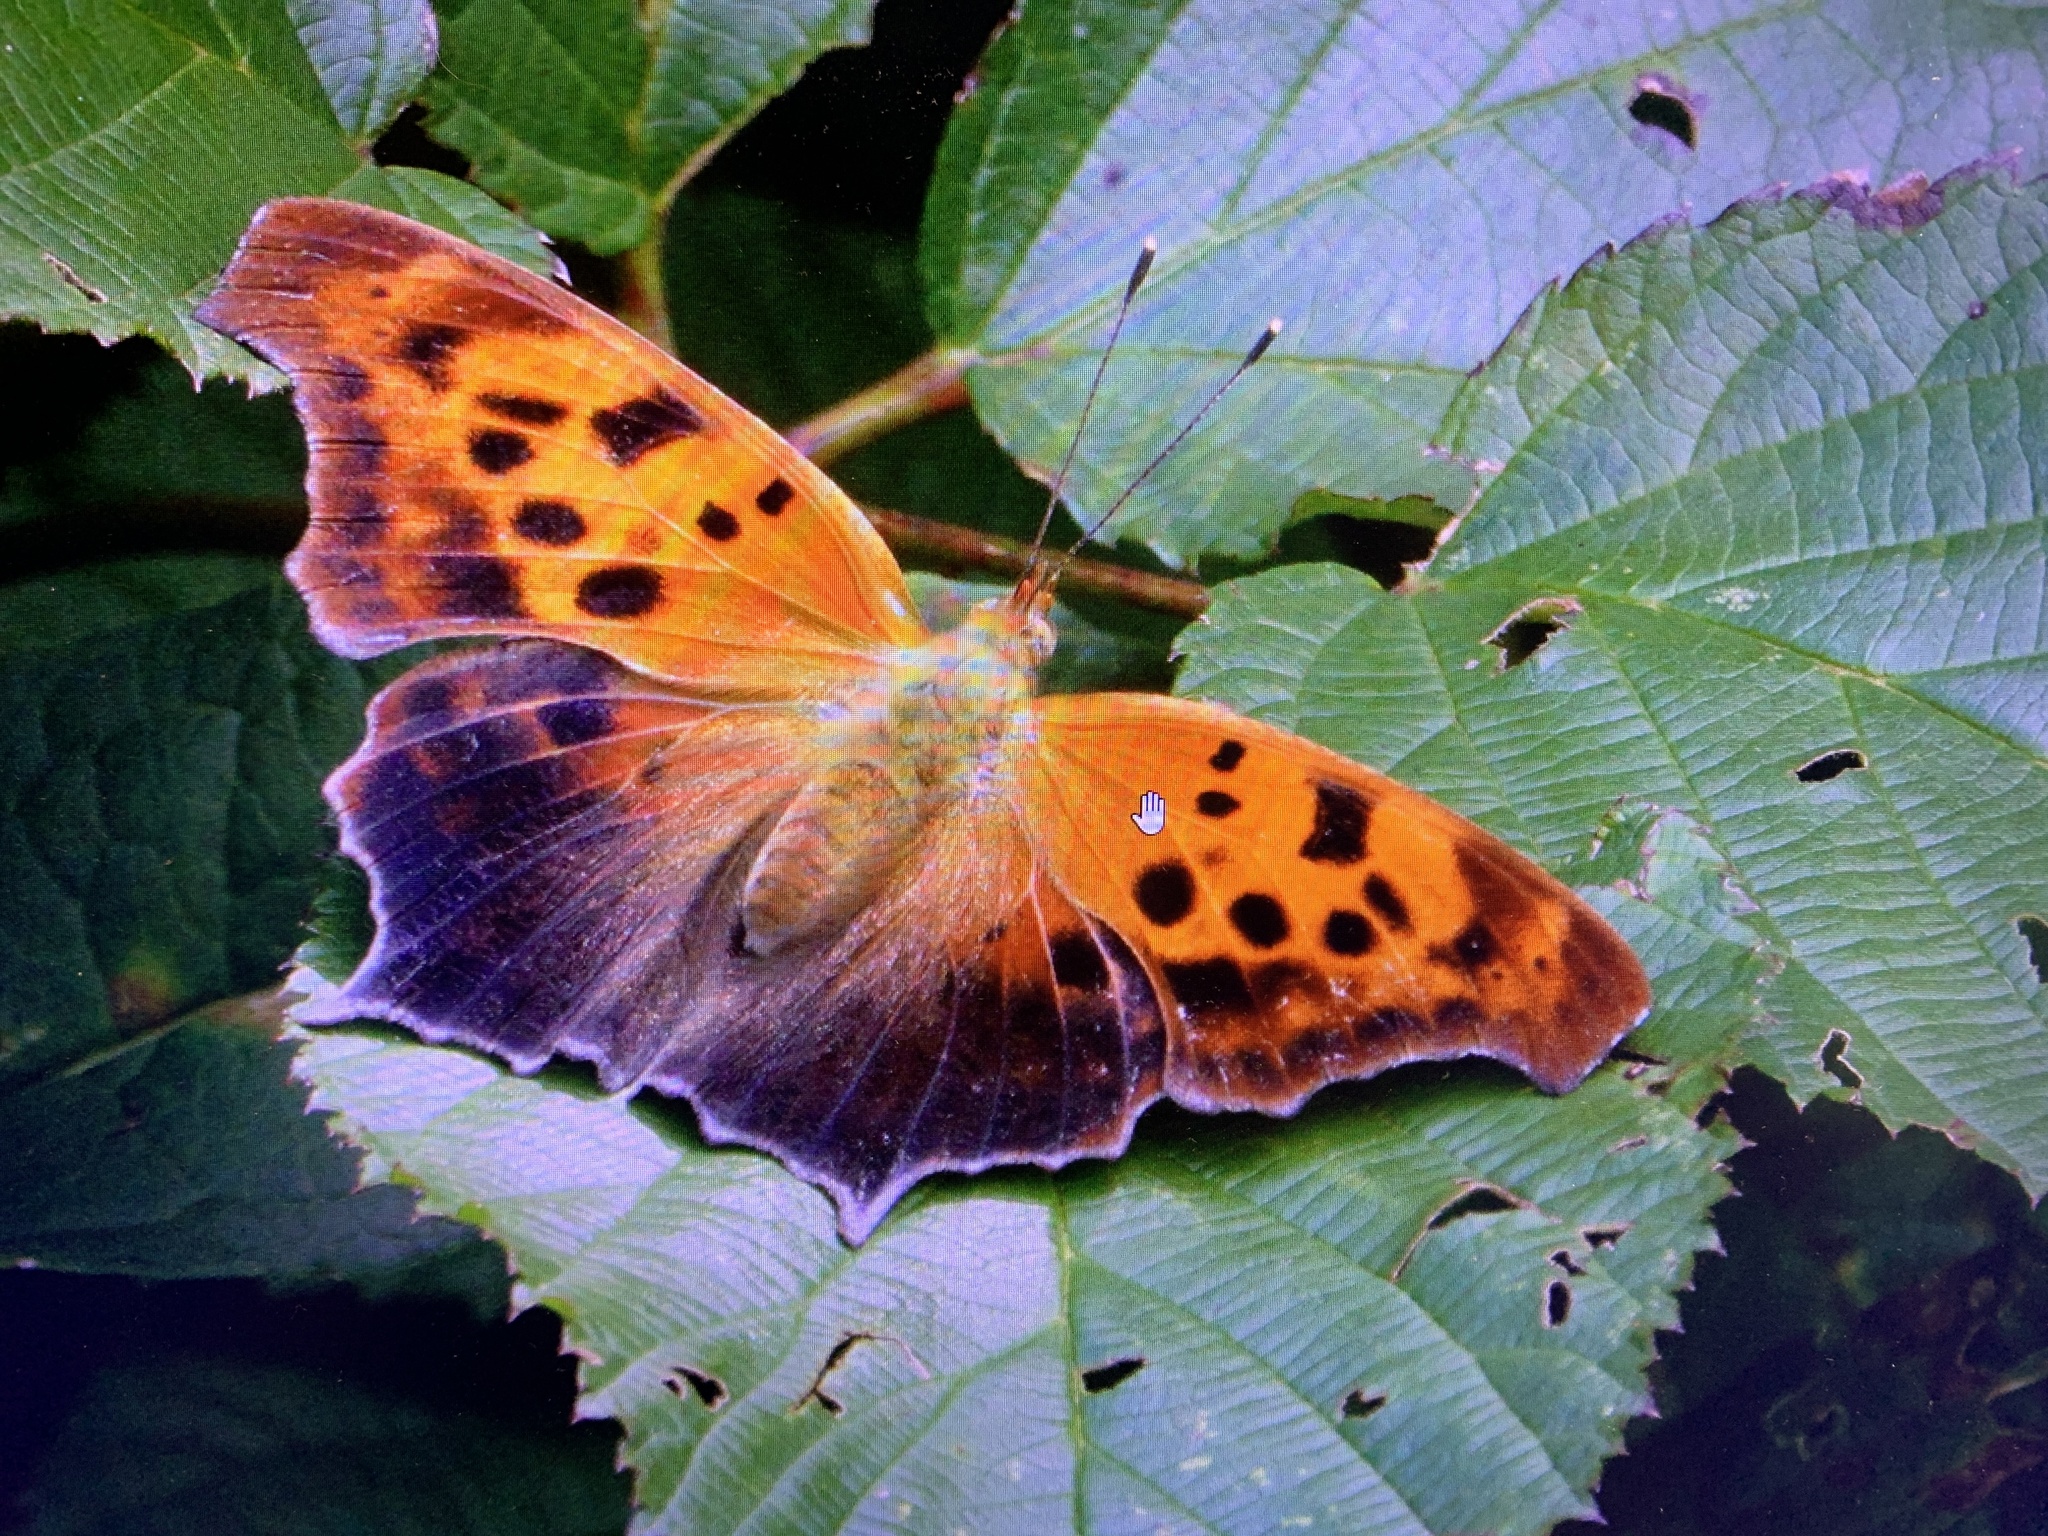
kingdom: Animalia
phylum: Arthropoda
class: Insecta
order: Lepidoptera
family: Nymphalidae
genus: Polygonia
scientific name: Polygonia interrogationis
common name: Question mark
